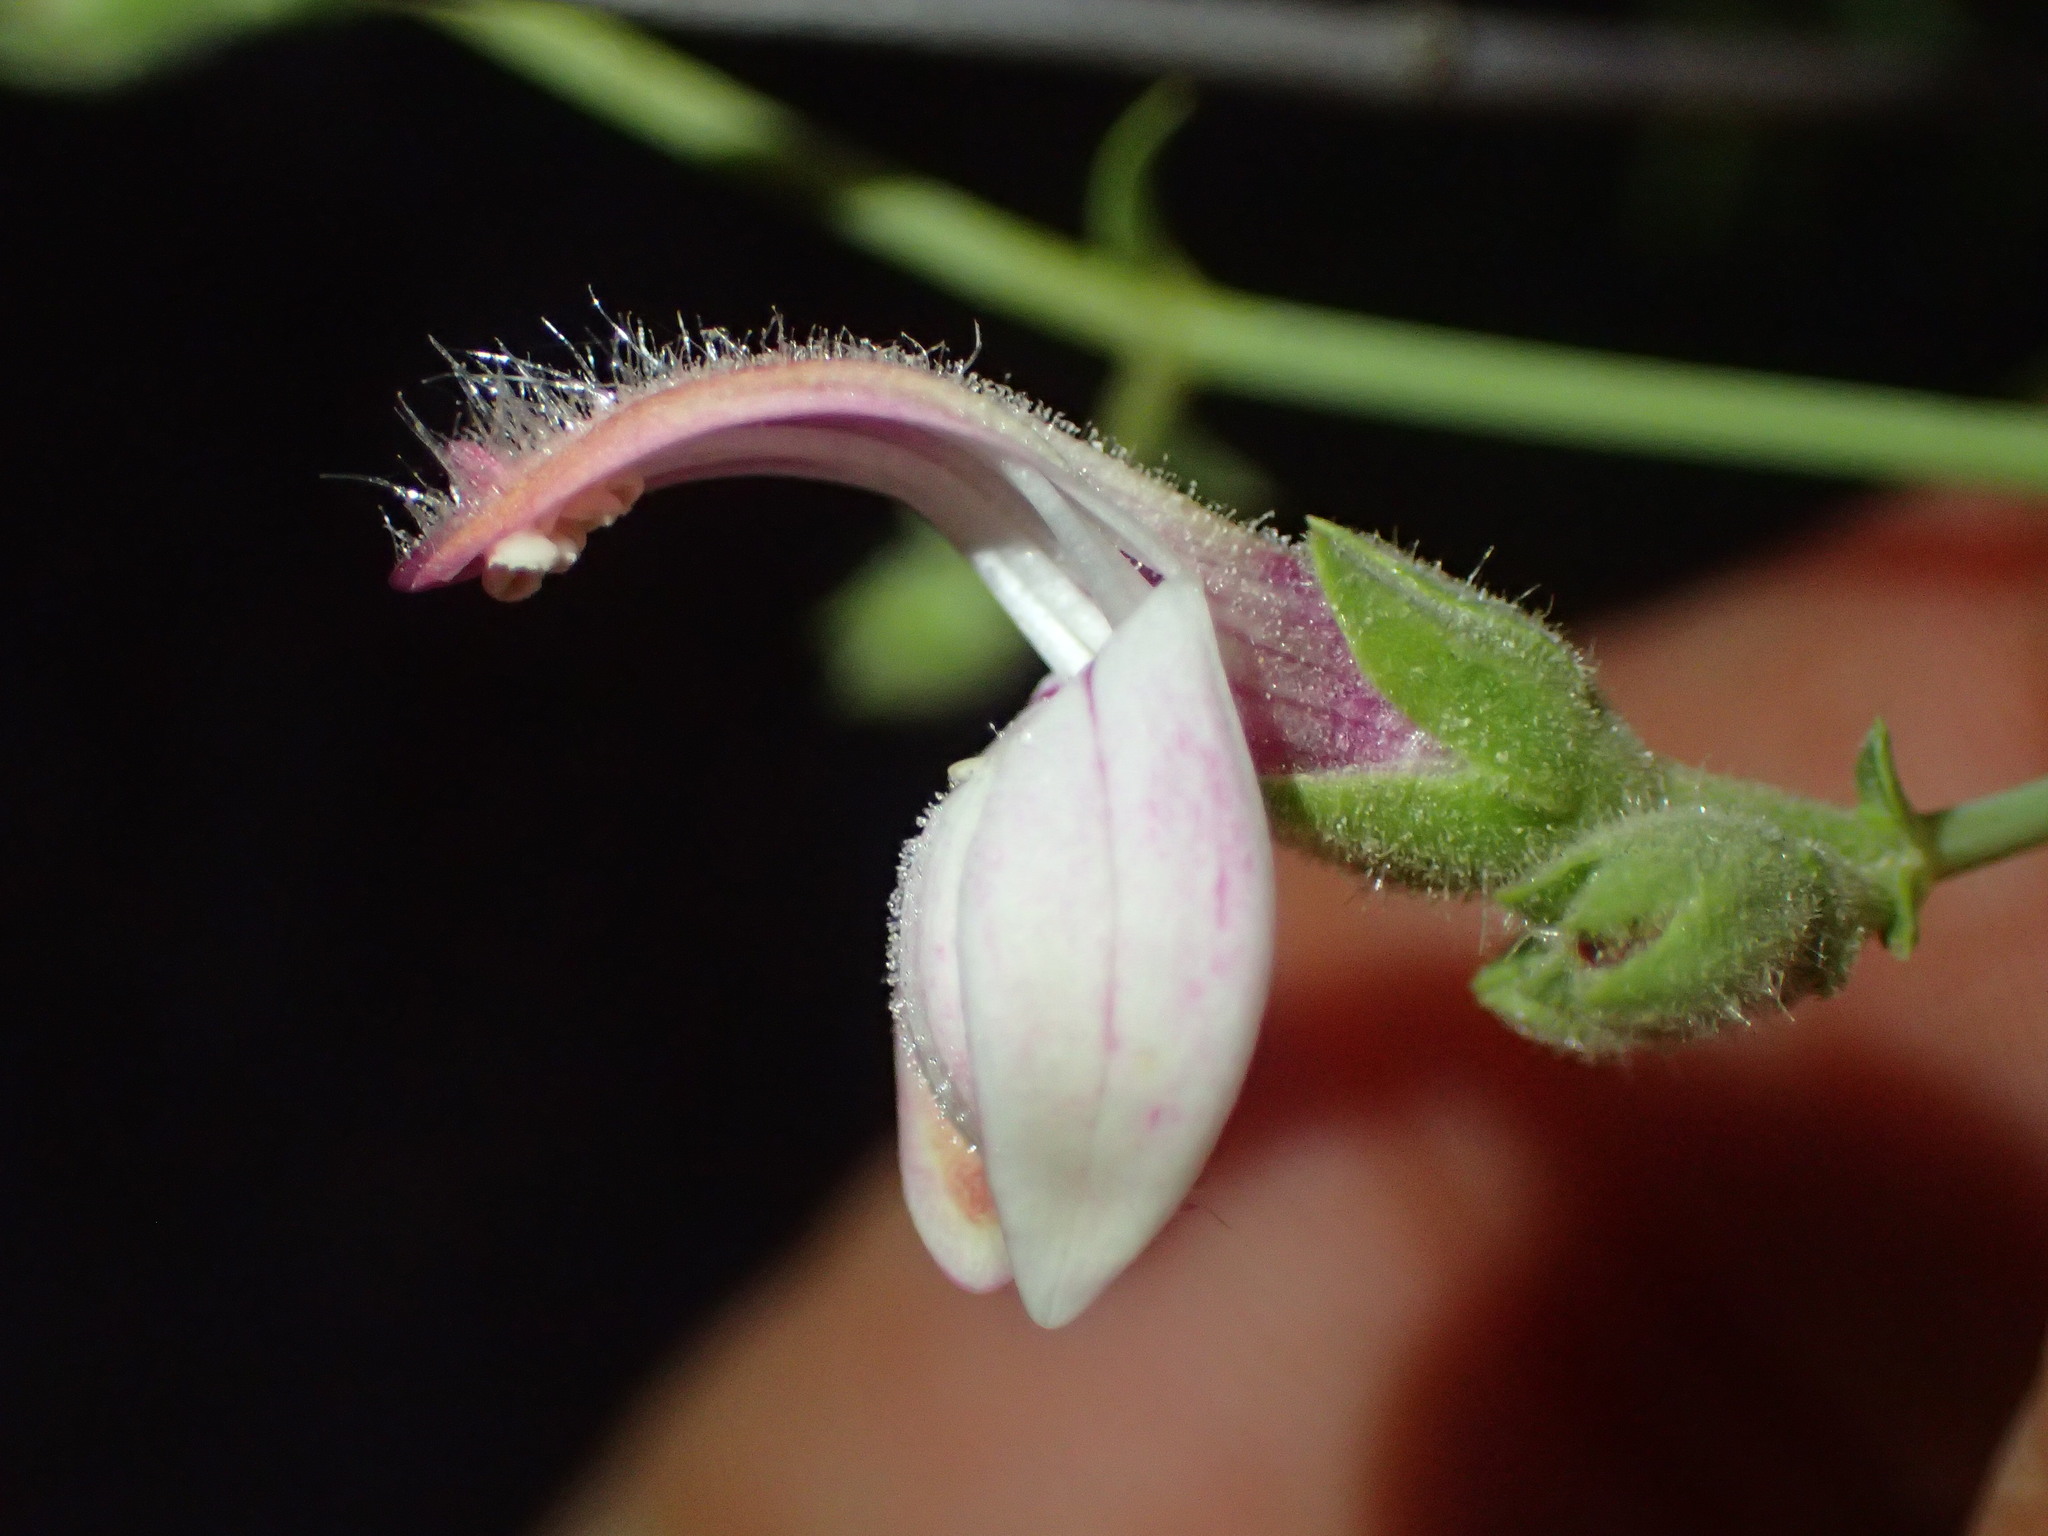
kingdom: Plantae
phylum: Tracheophyta
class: Magnoliopsida
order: Lamiales
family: Plantaginaceae
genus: Keckiella
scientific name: Keckiella breviflora
